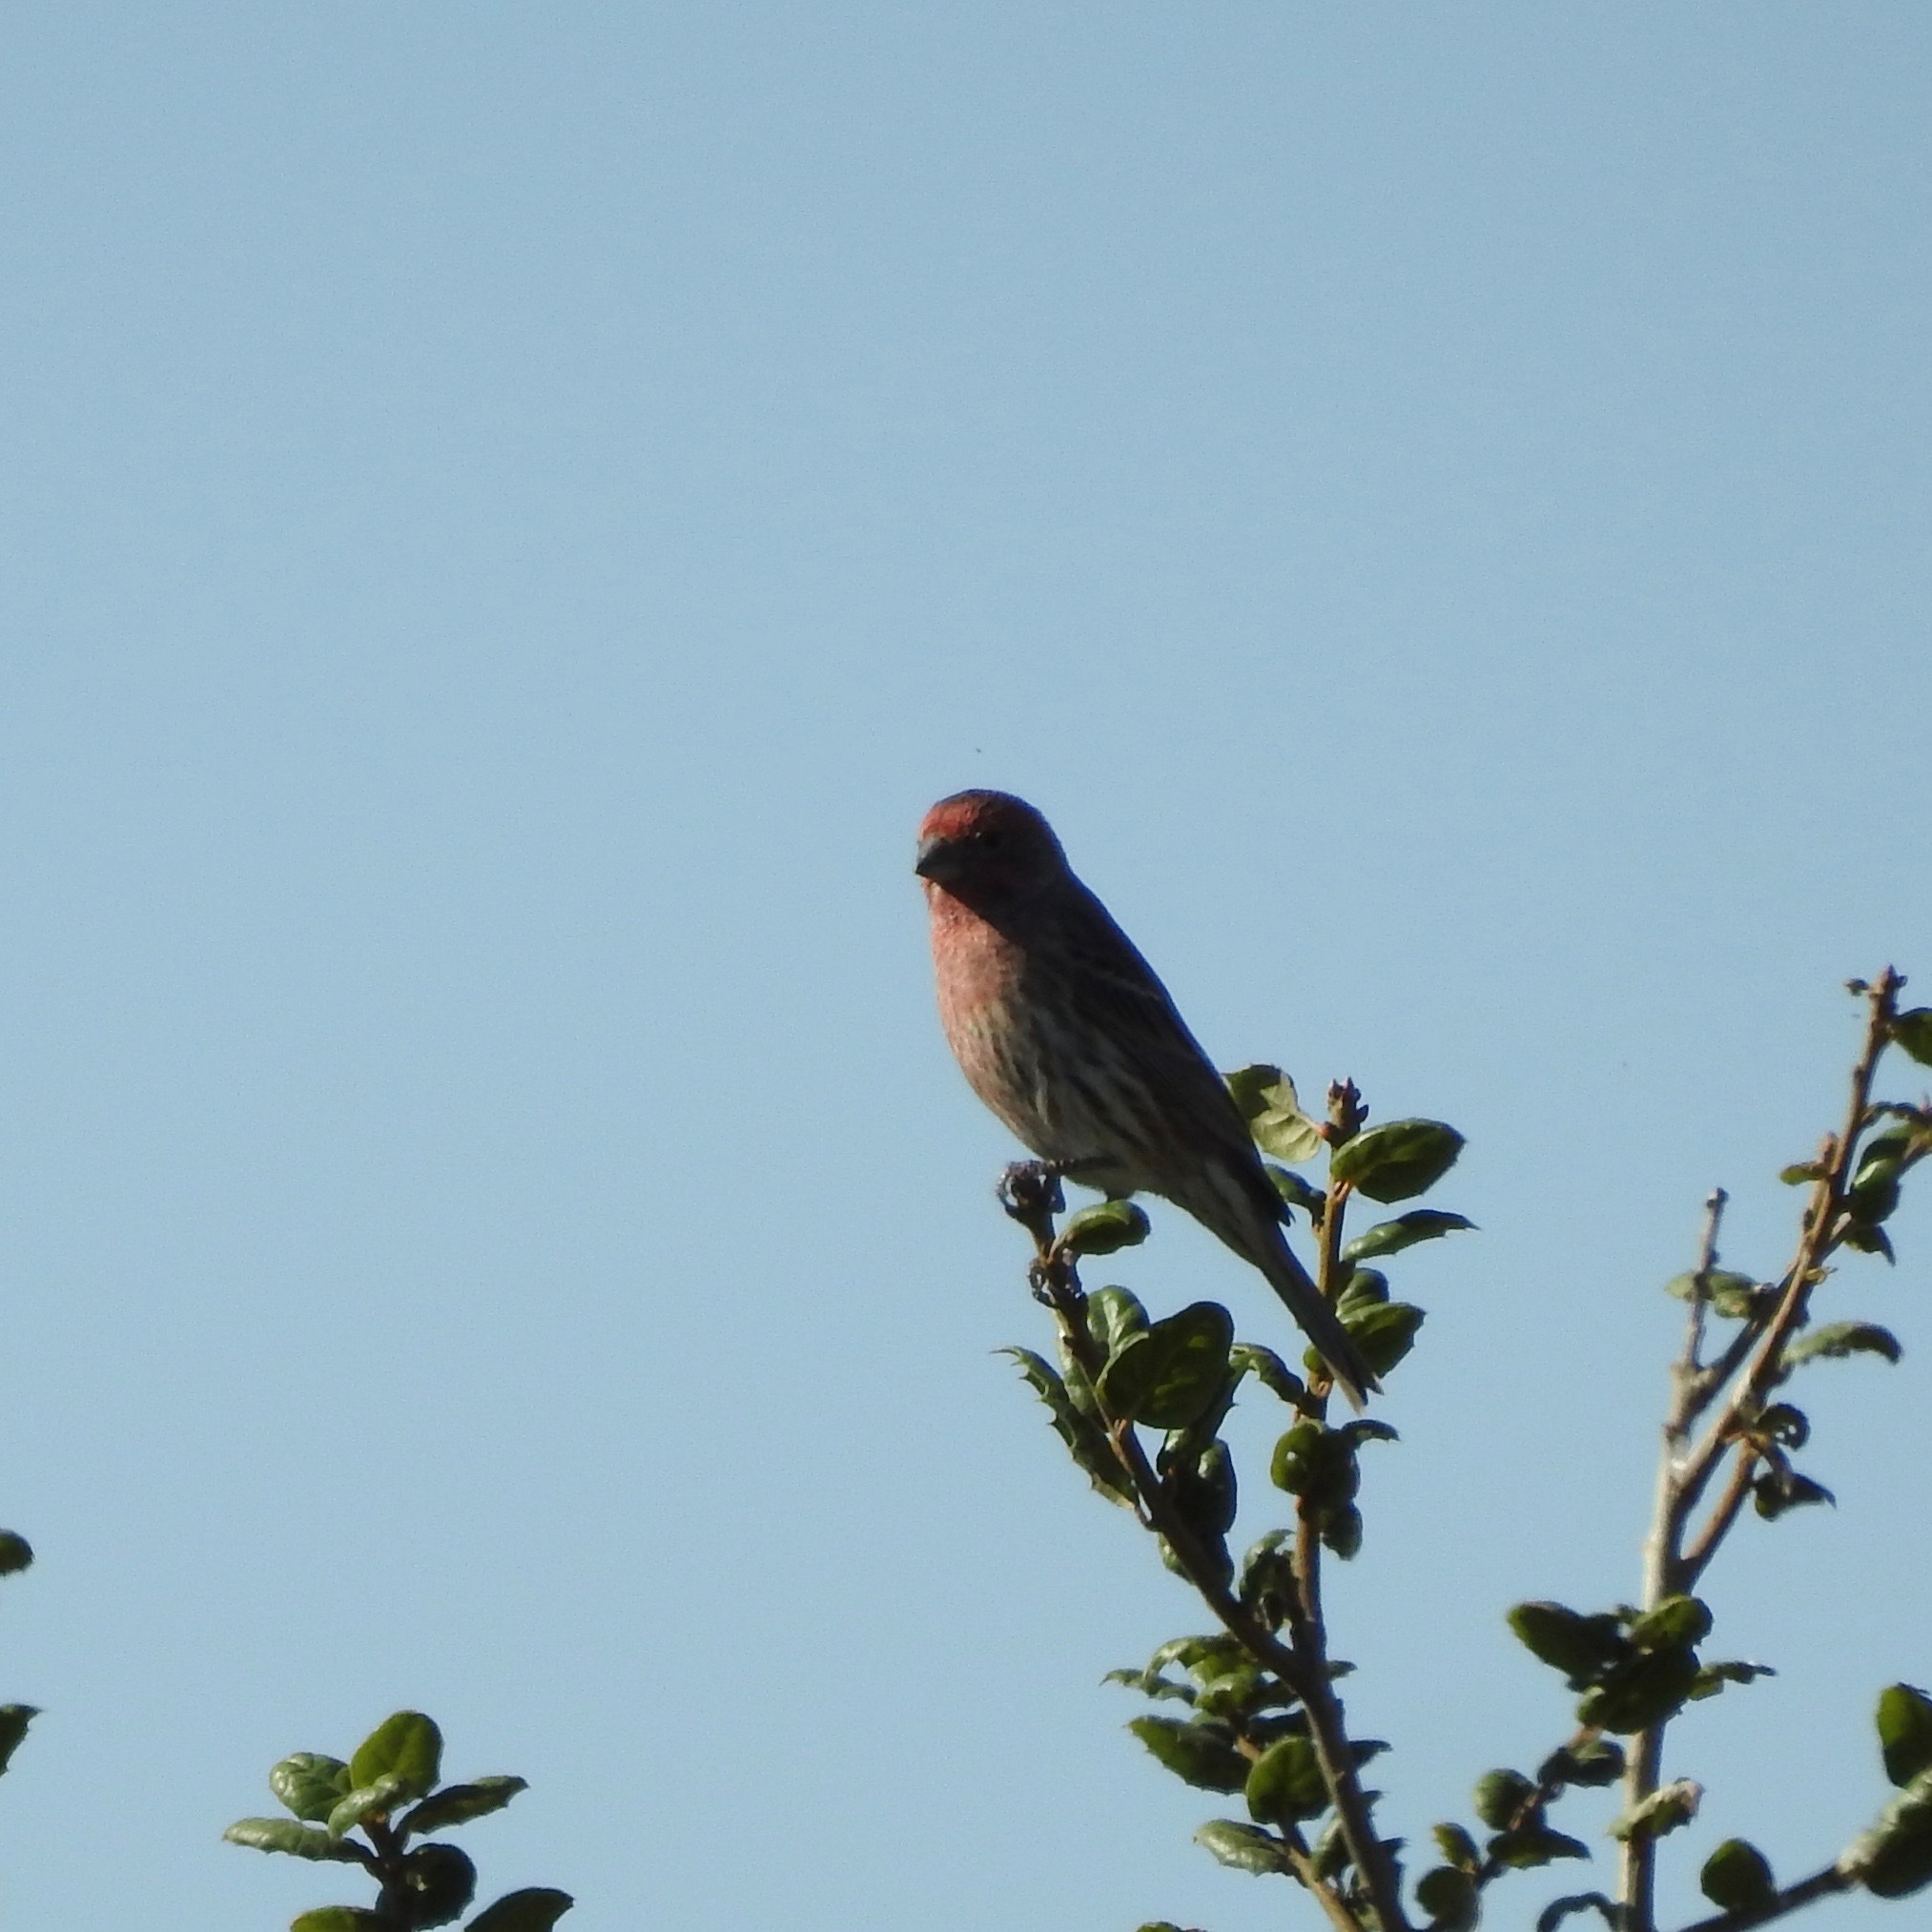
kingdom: Animalia
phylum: Chordata
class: Aves
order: Passeriformes
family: Fringillidae
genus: Haemorhous
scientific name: Haemorhous mexicanus
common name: House finch
